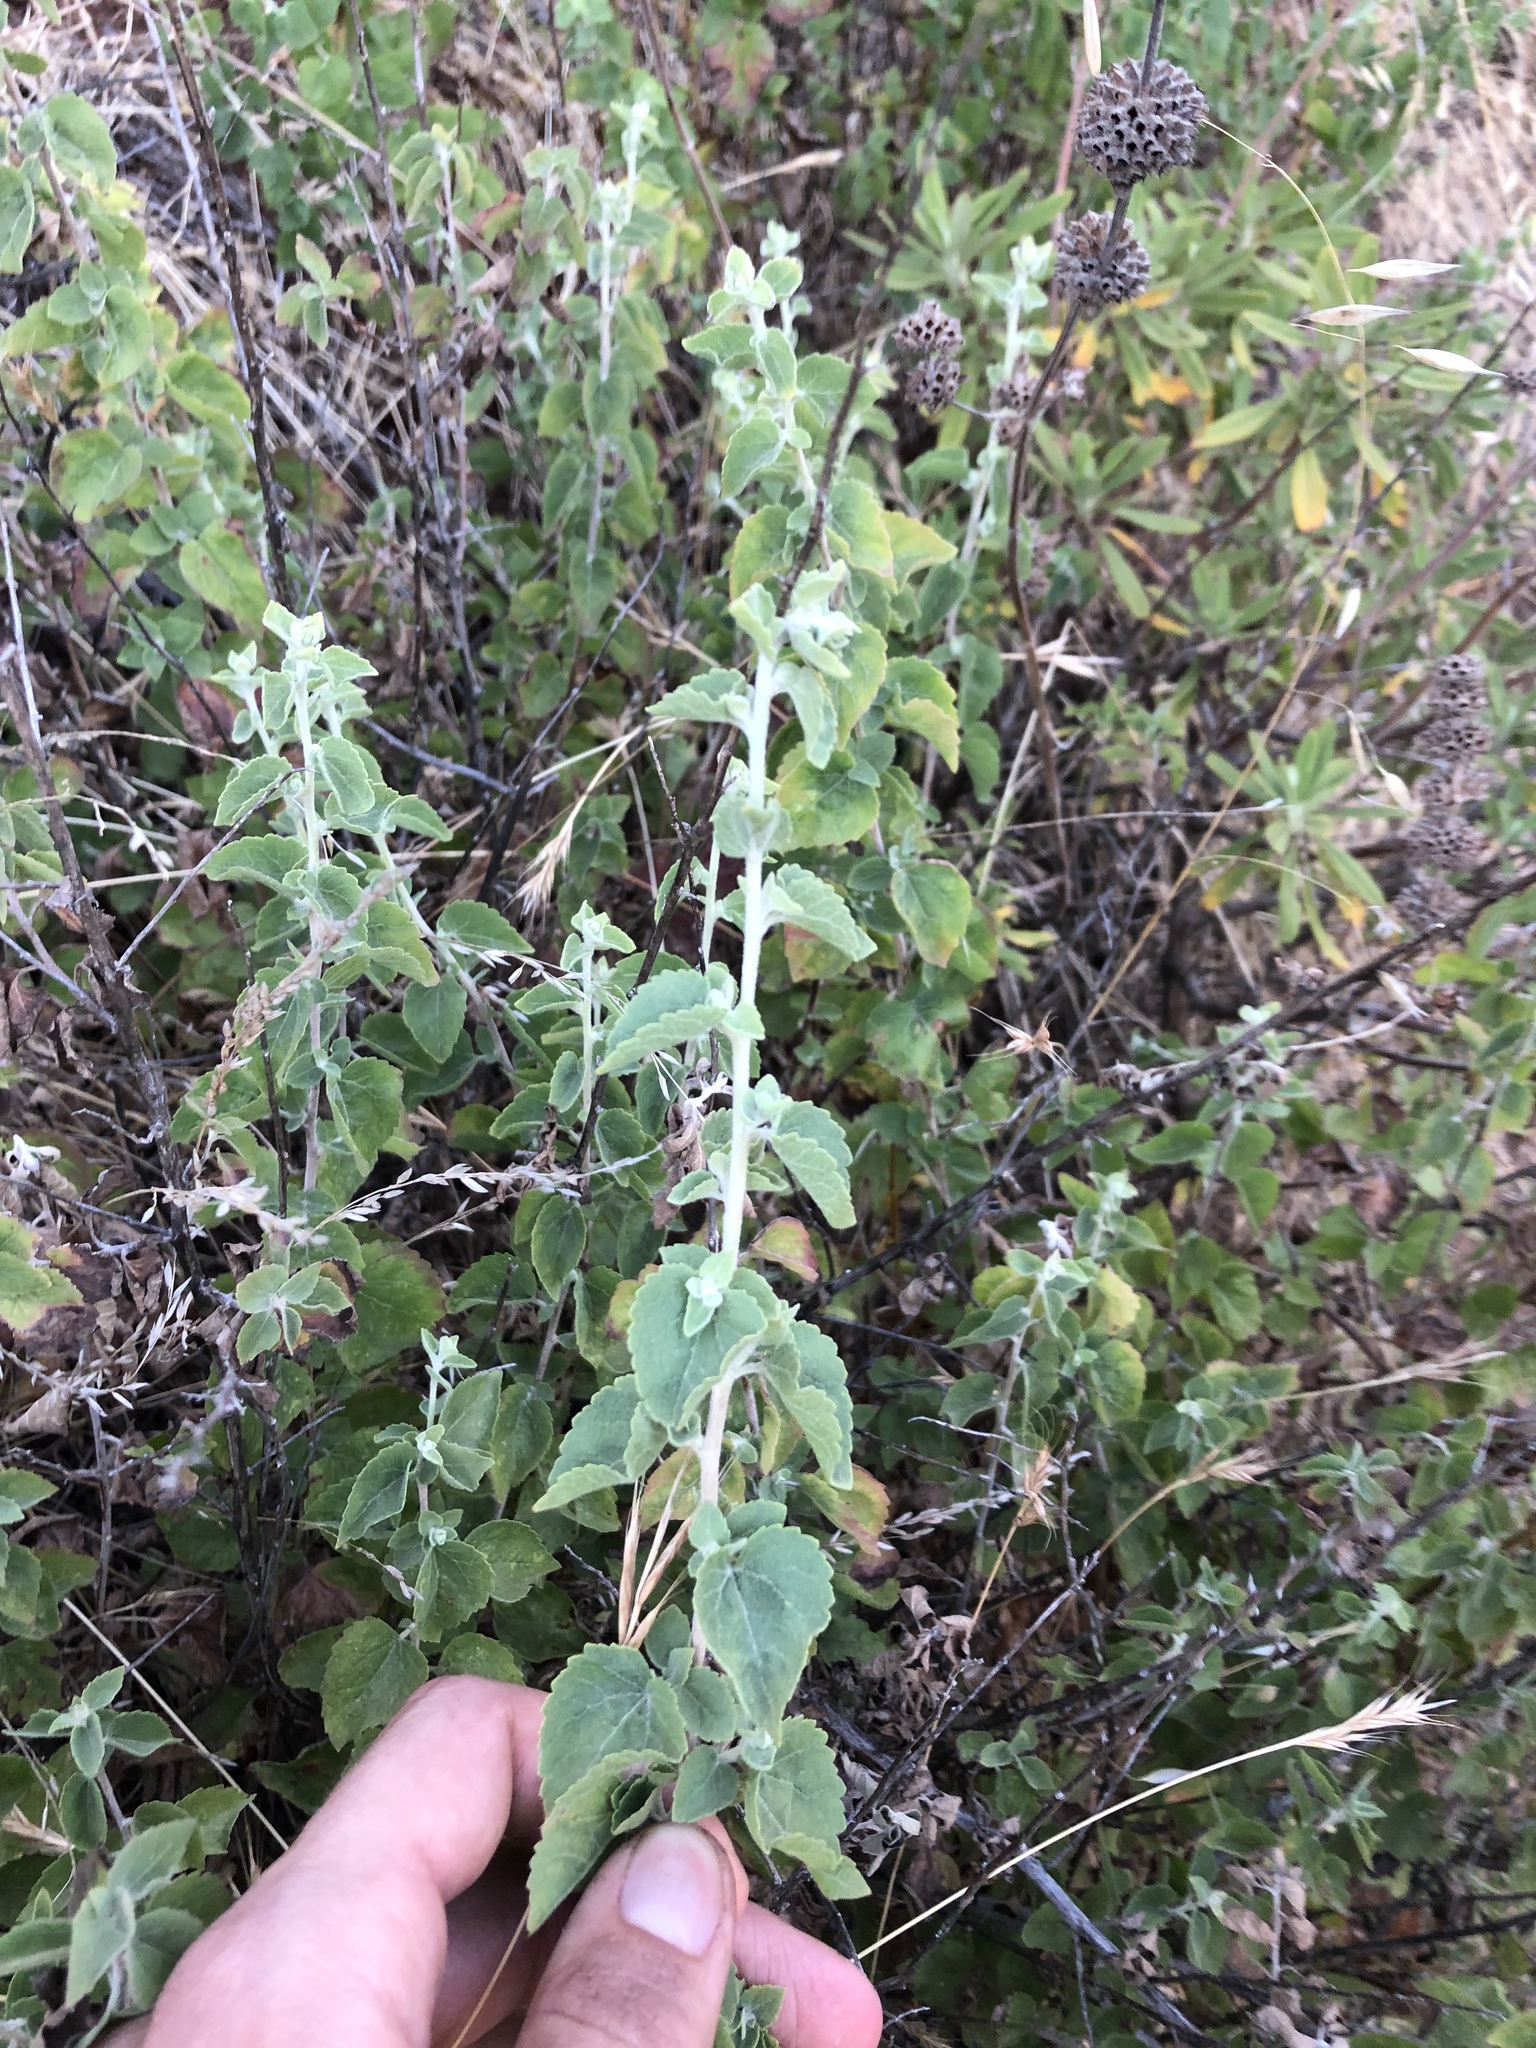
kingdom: Plantae
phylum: Tracheophyta
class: Magnoliopsida
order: Asterales
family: Asteraceae
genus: Brickellia
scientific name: Brickellia californica
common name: California brickellbush
